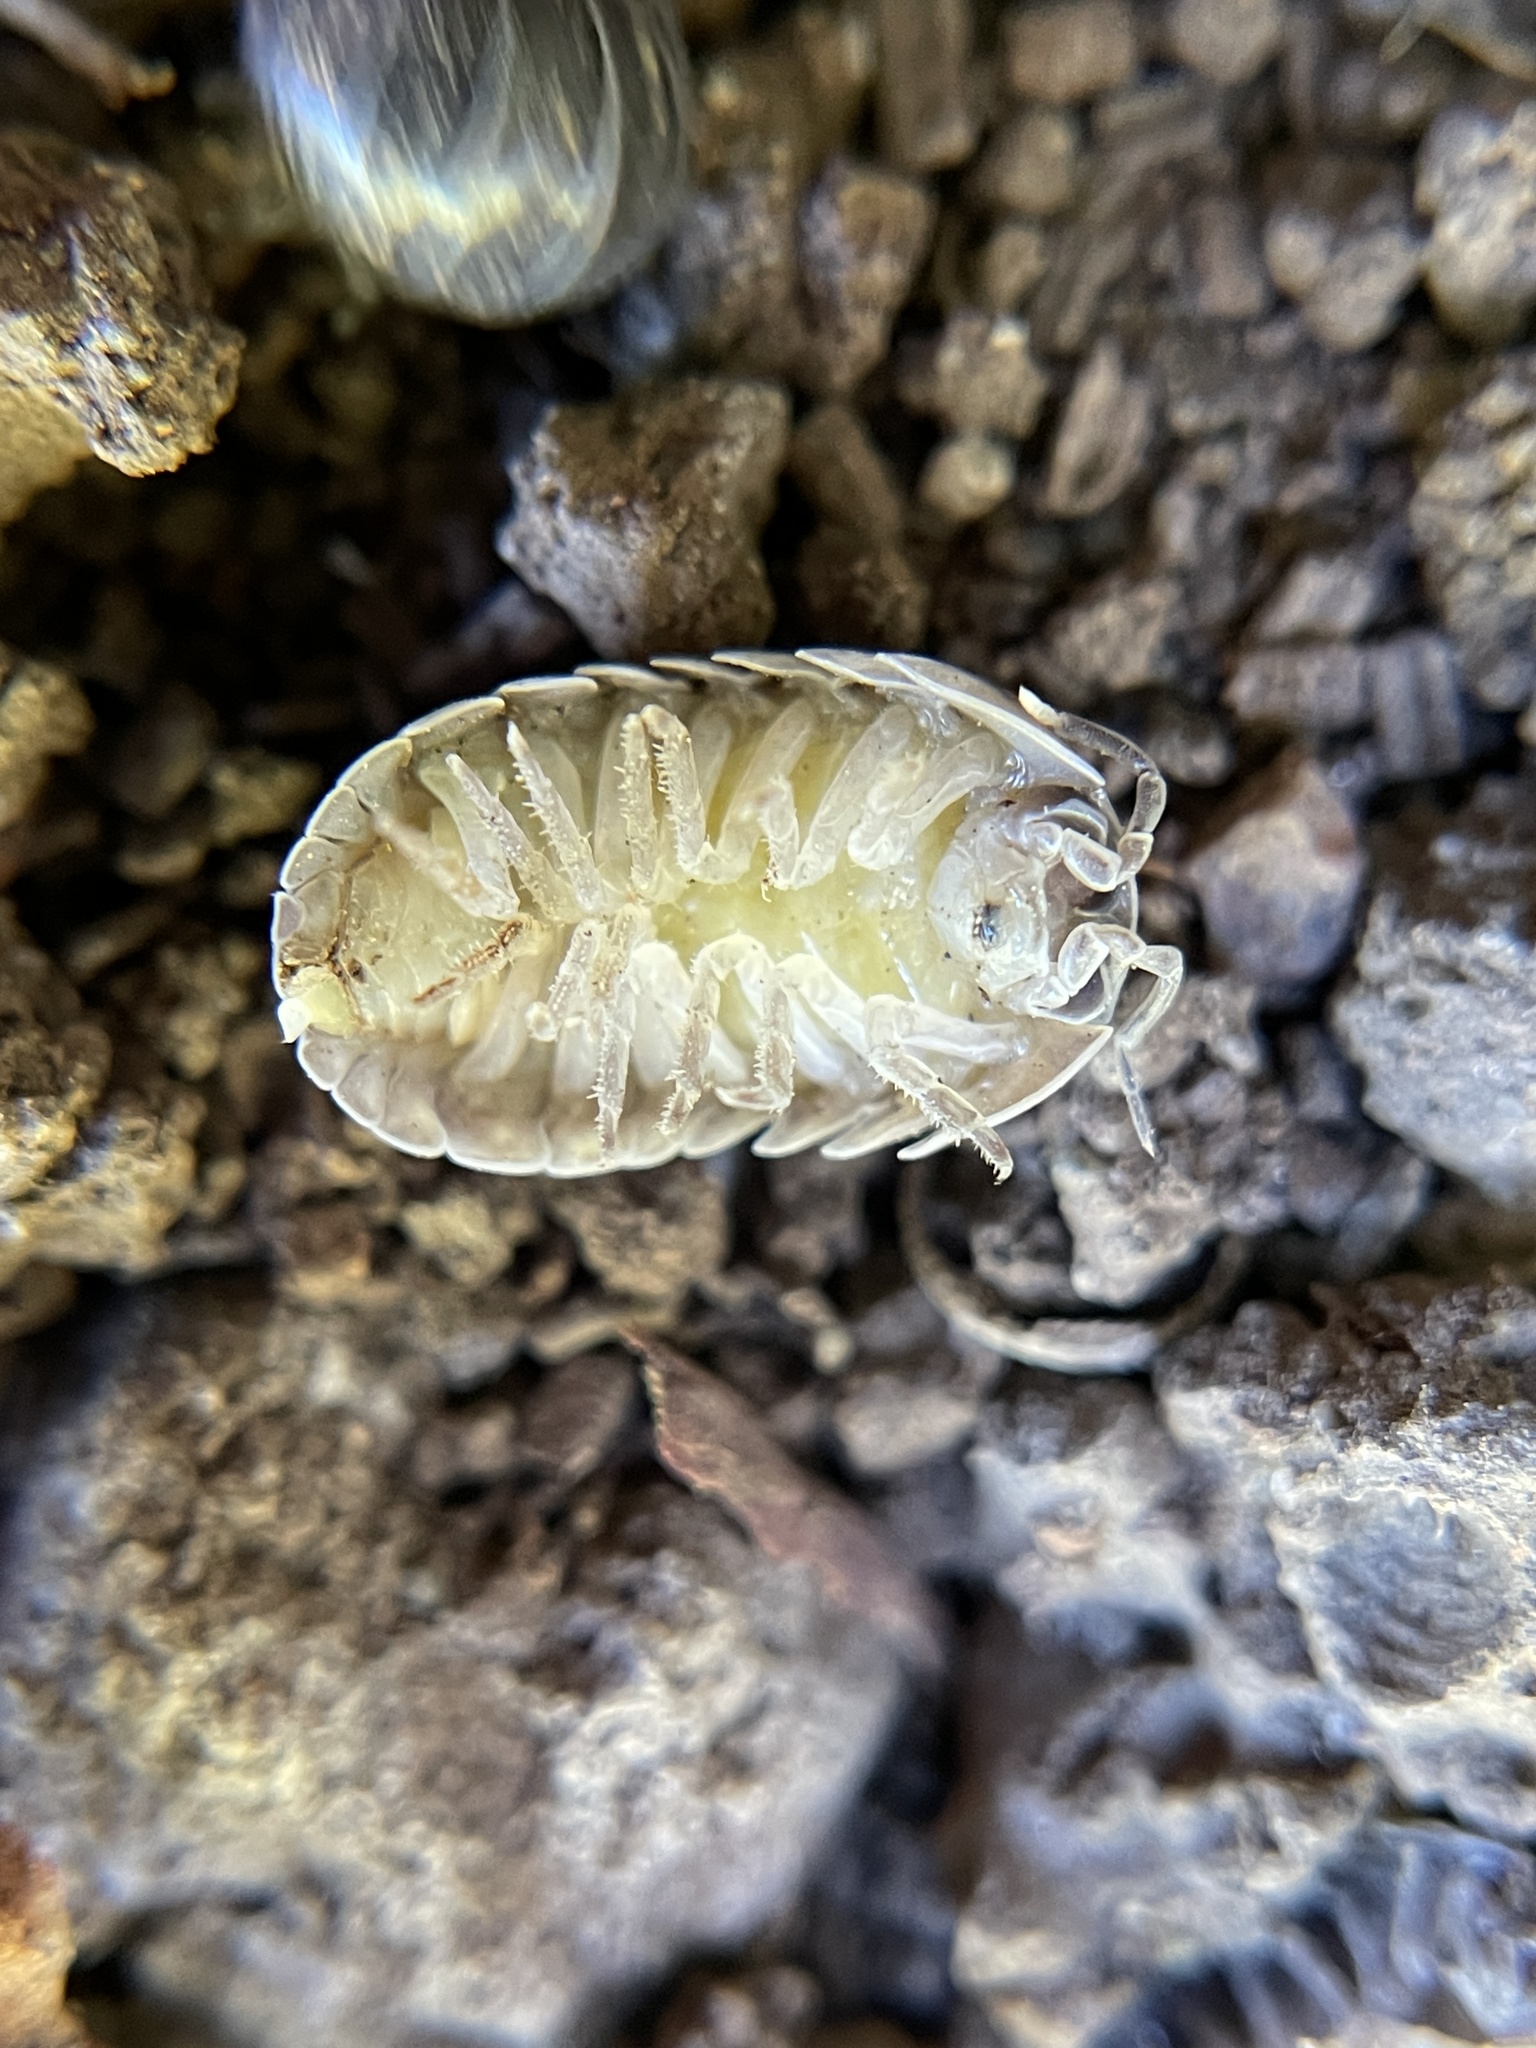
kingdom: Animalia
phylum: Arthropoda
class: Malacostraca
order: Isopoda
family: Armadillidiidae
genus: Armadillidium
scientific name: Armadillidium vulgare
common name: Common pill woodlouse
